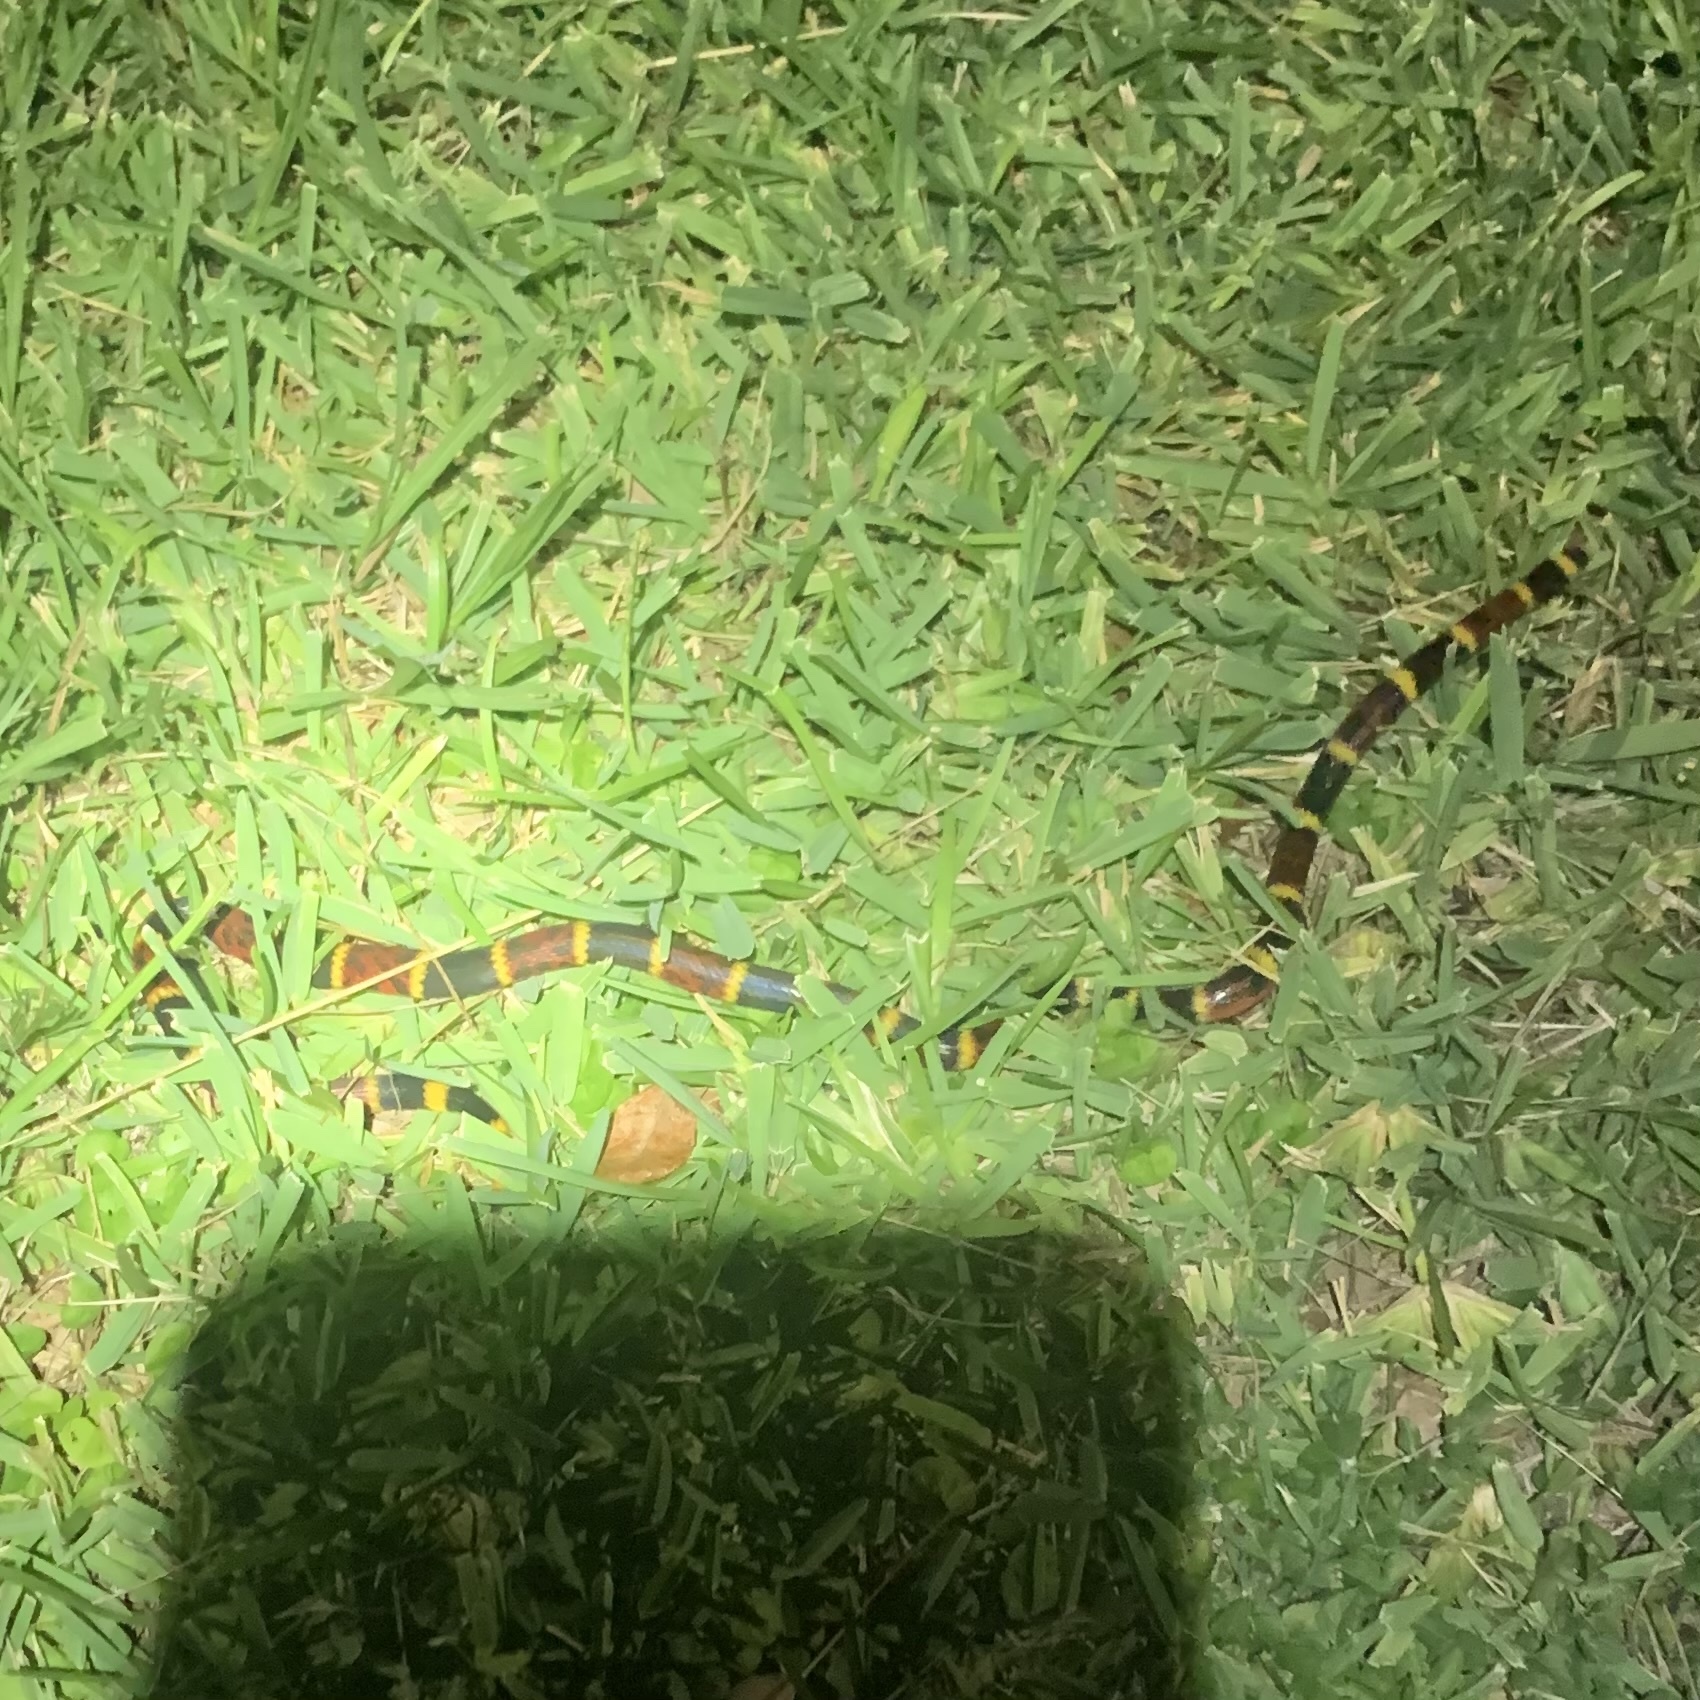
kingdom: Animalia
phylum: Chordata
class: Squamata
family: Elapidae
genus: Micrurus
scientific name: Micrurus tener
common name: Texas coral snake
